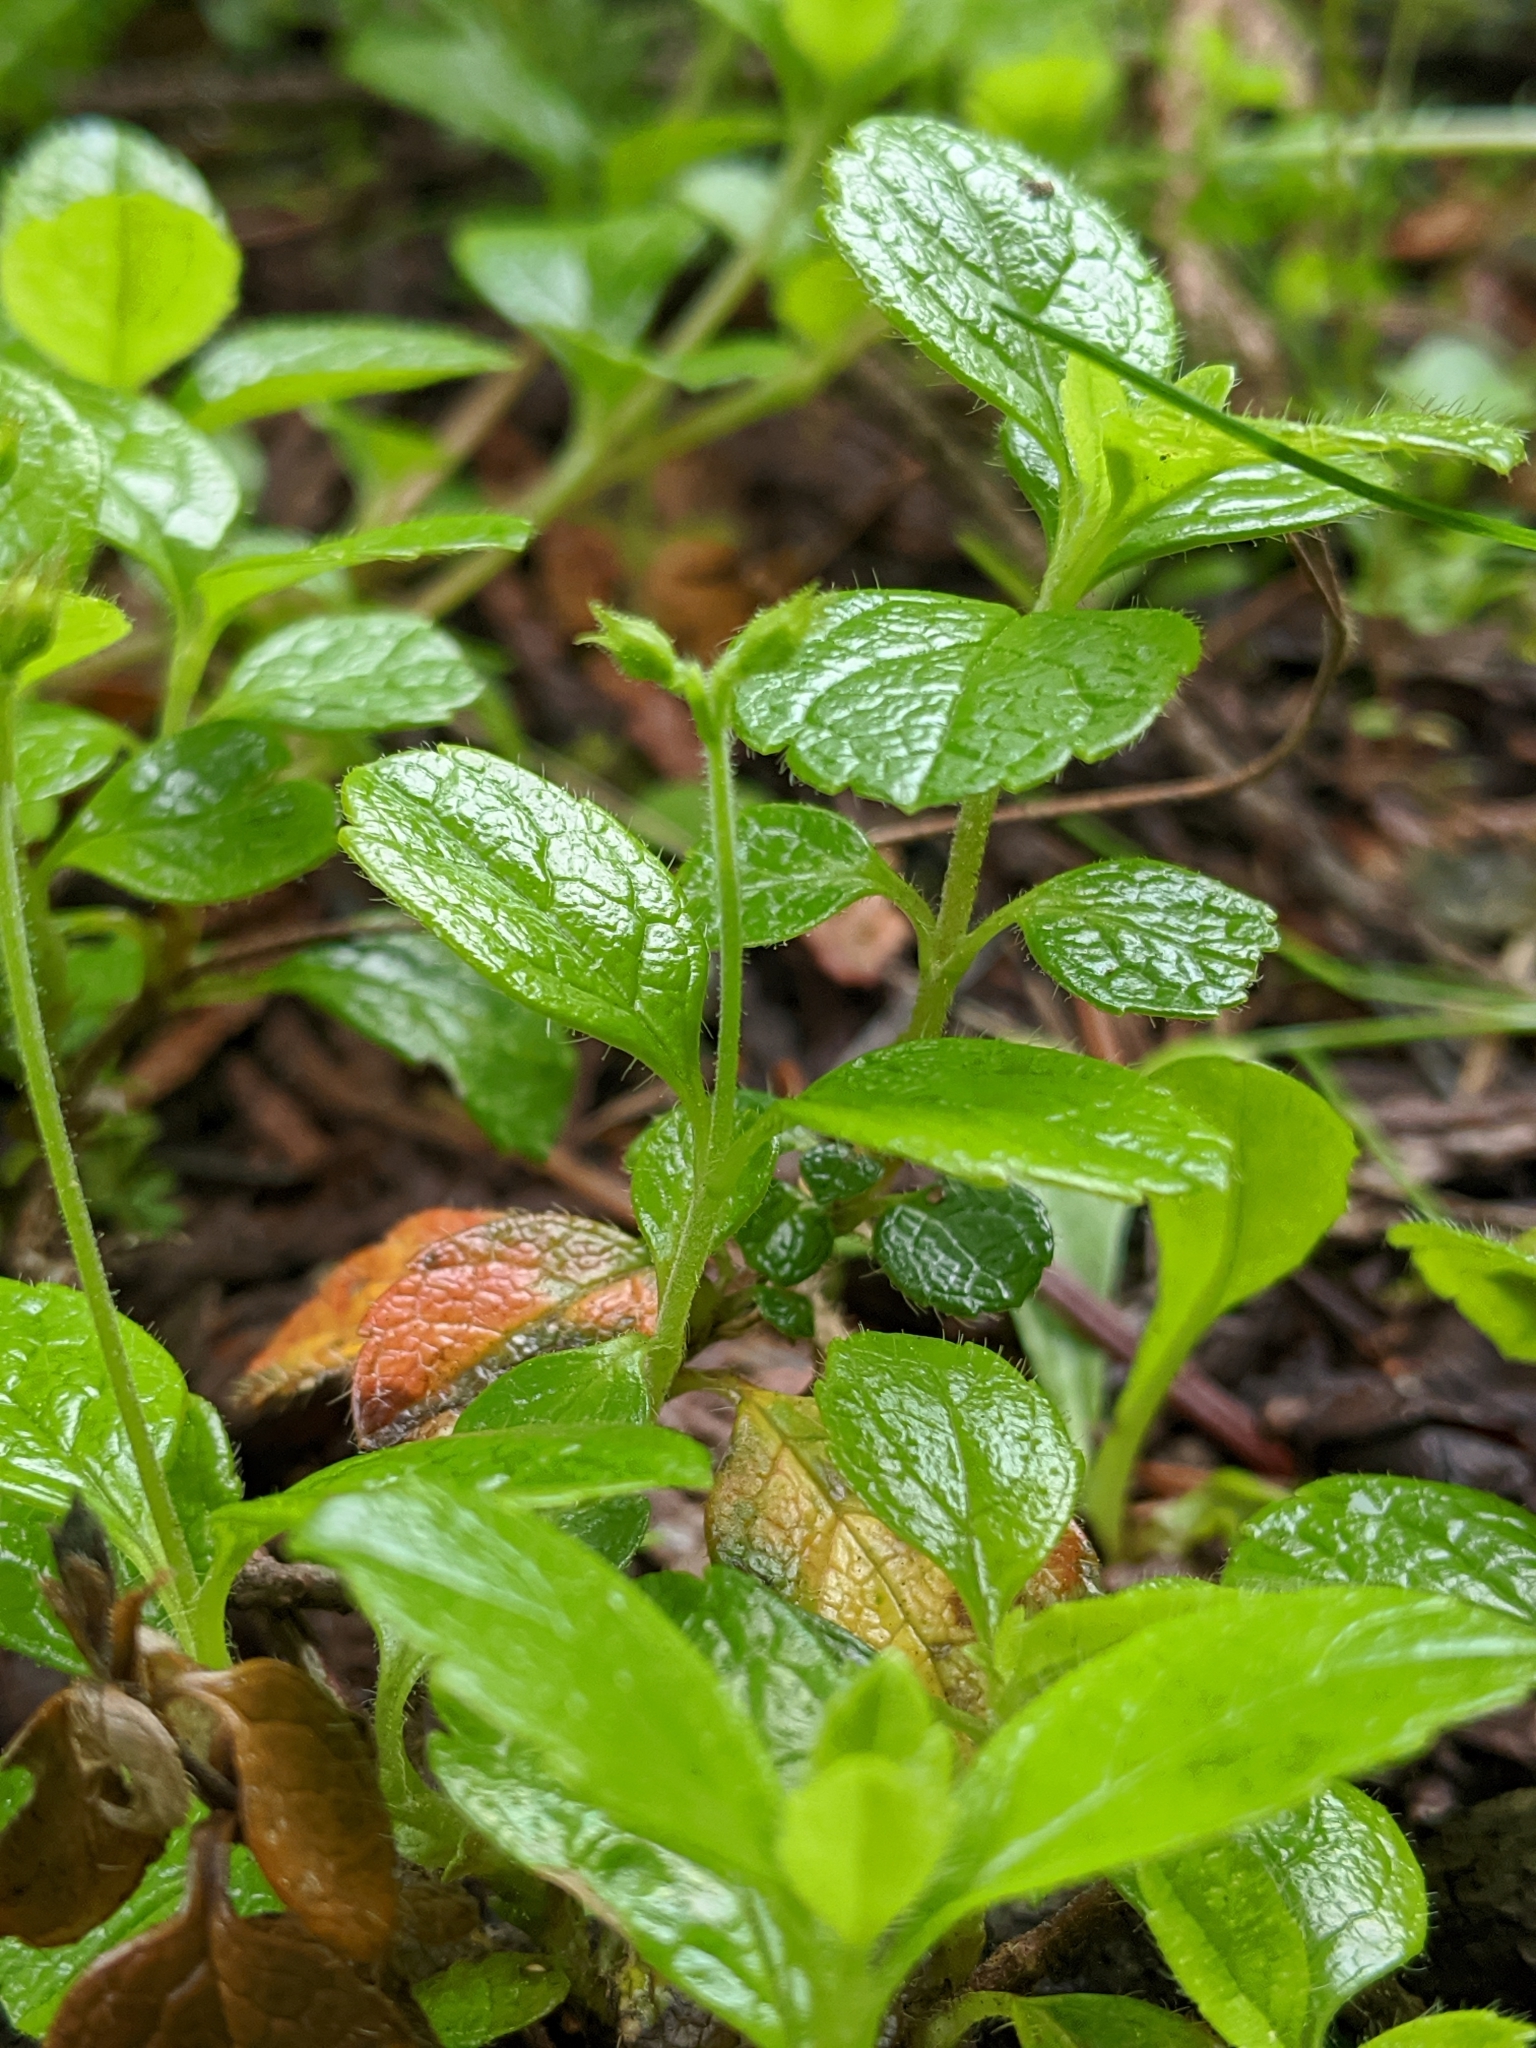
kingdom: Plantae
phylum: Tracheophyta
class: Magnoliopsida
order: Dipsacales
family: Caprifoliaceae
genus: Linnaea
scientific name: Linnaea borealis
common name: Twinflower
